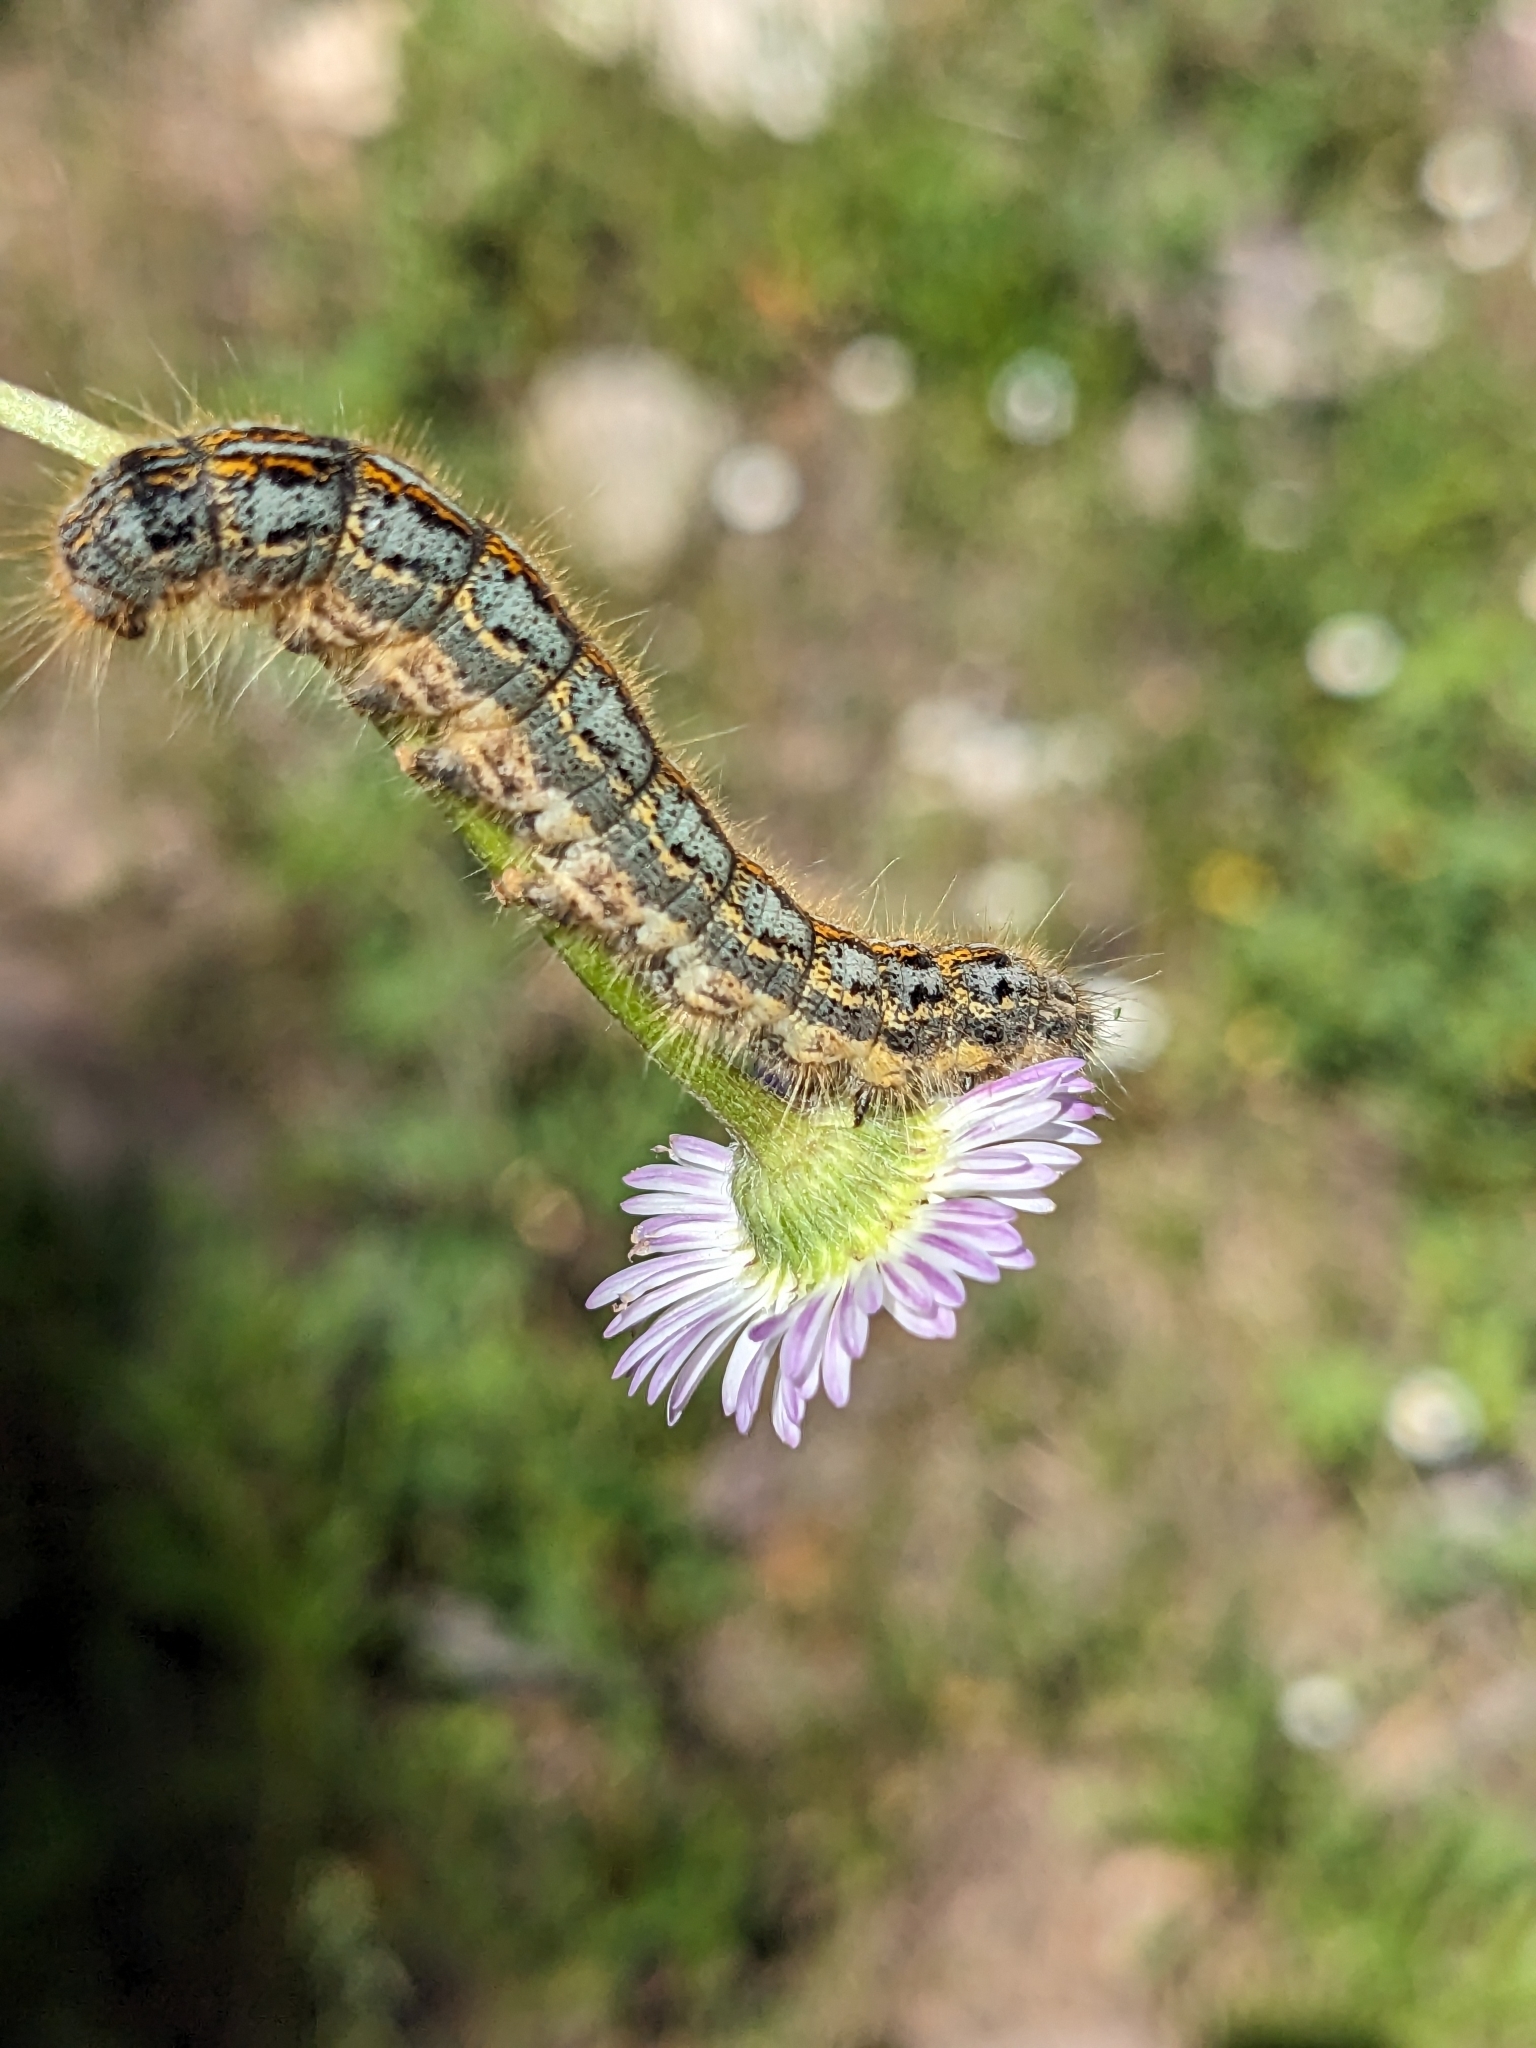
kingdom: Animalia
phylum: Arthropoda
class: Insecta
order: Lepidoptera
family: Lasiocampidae
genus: Malacosoma
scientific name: Malacosoma californica
